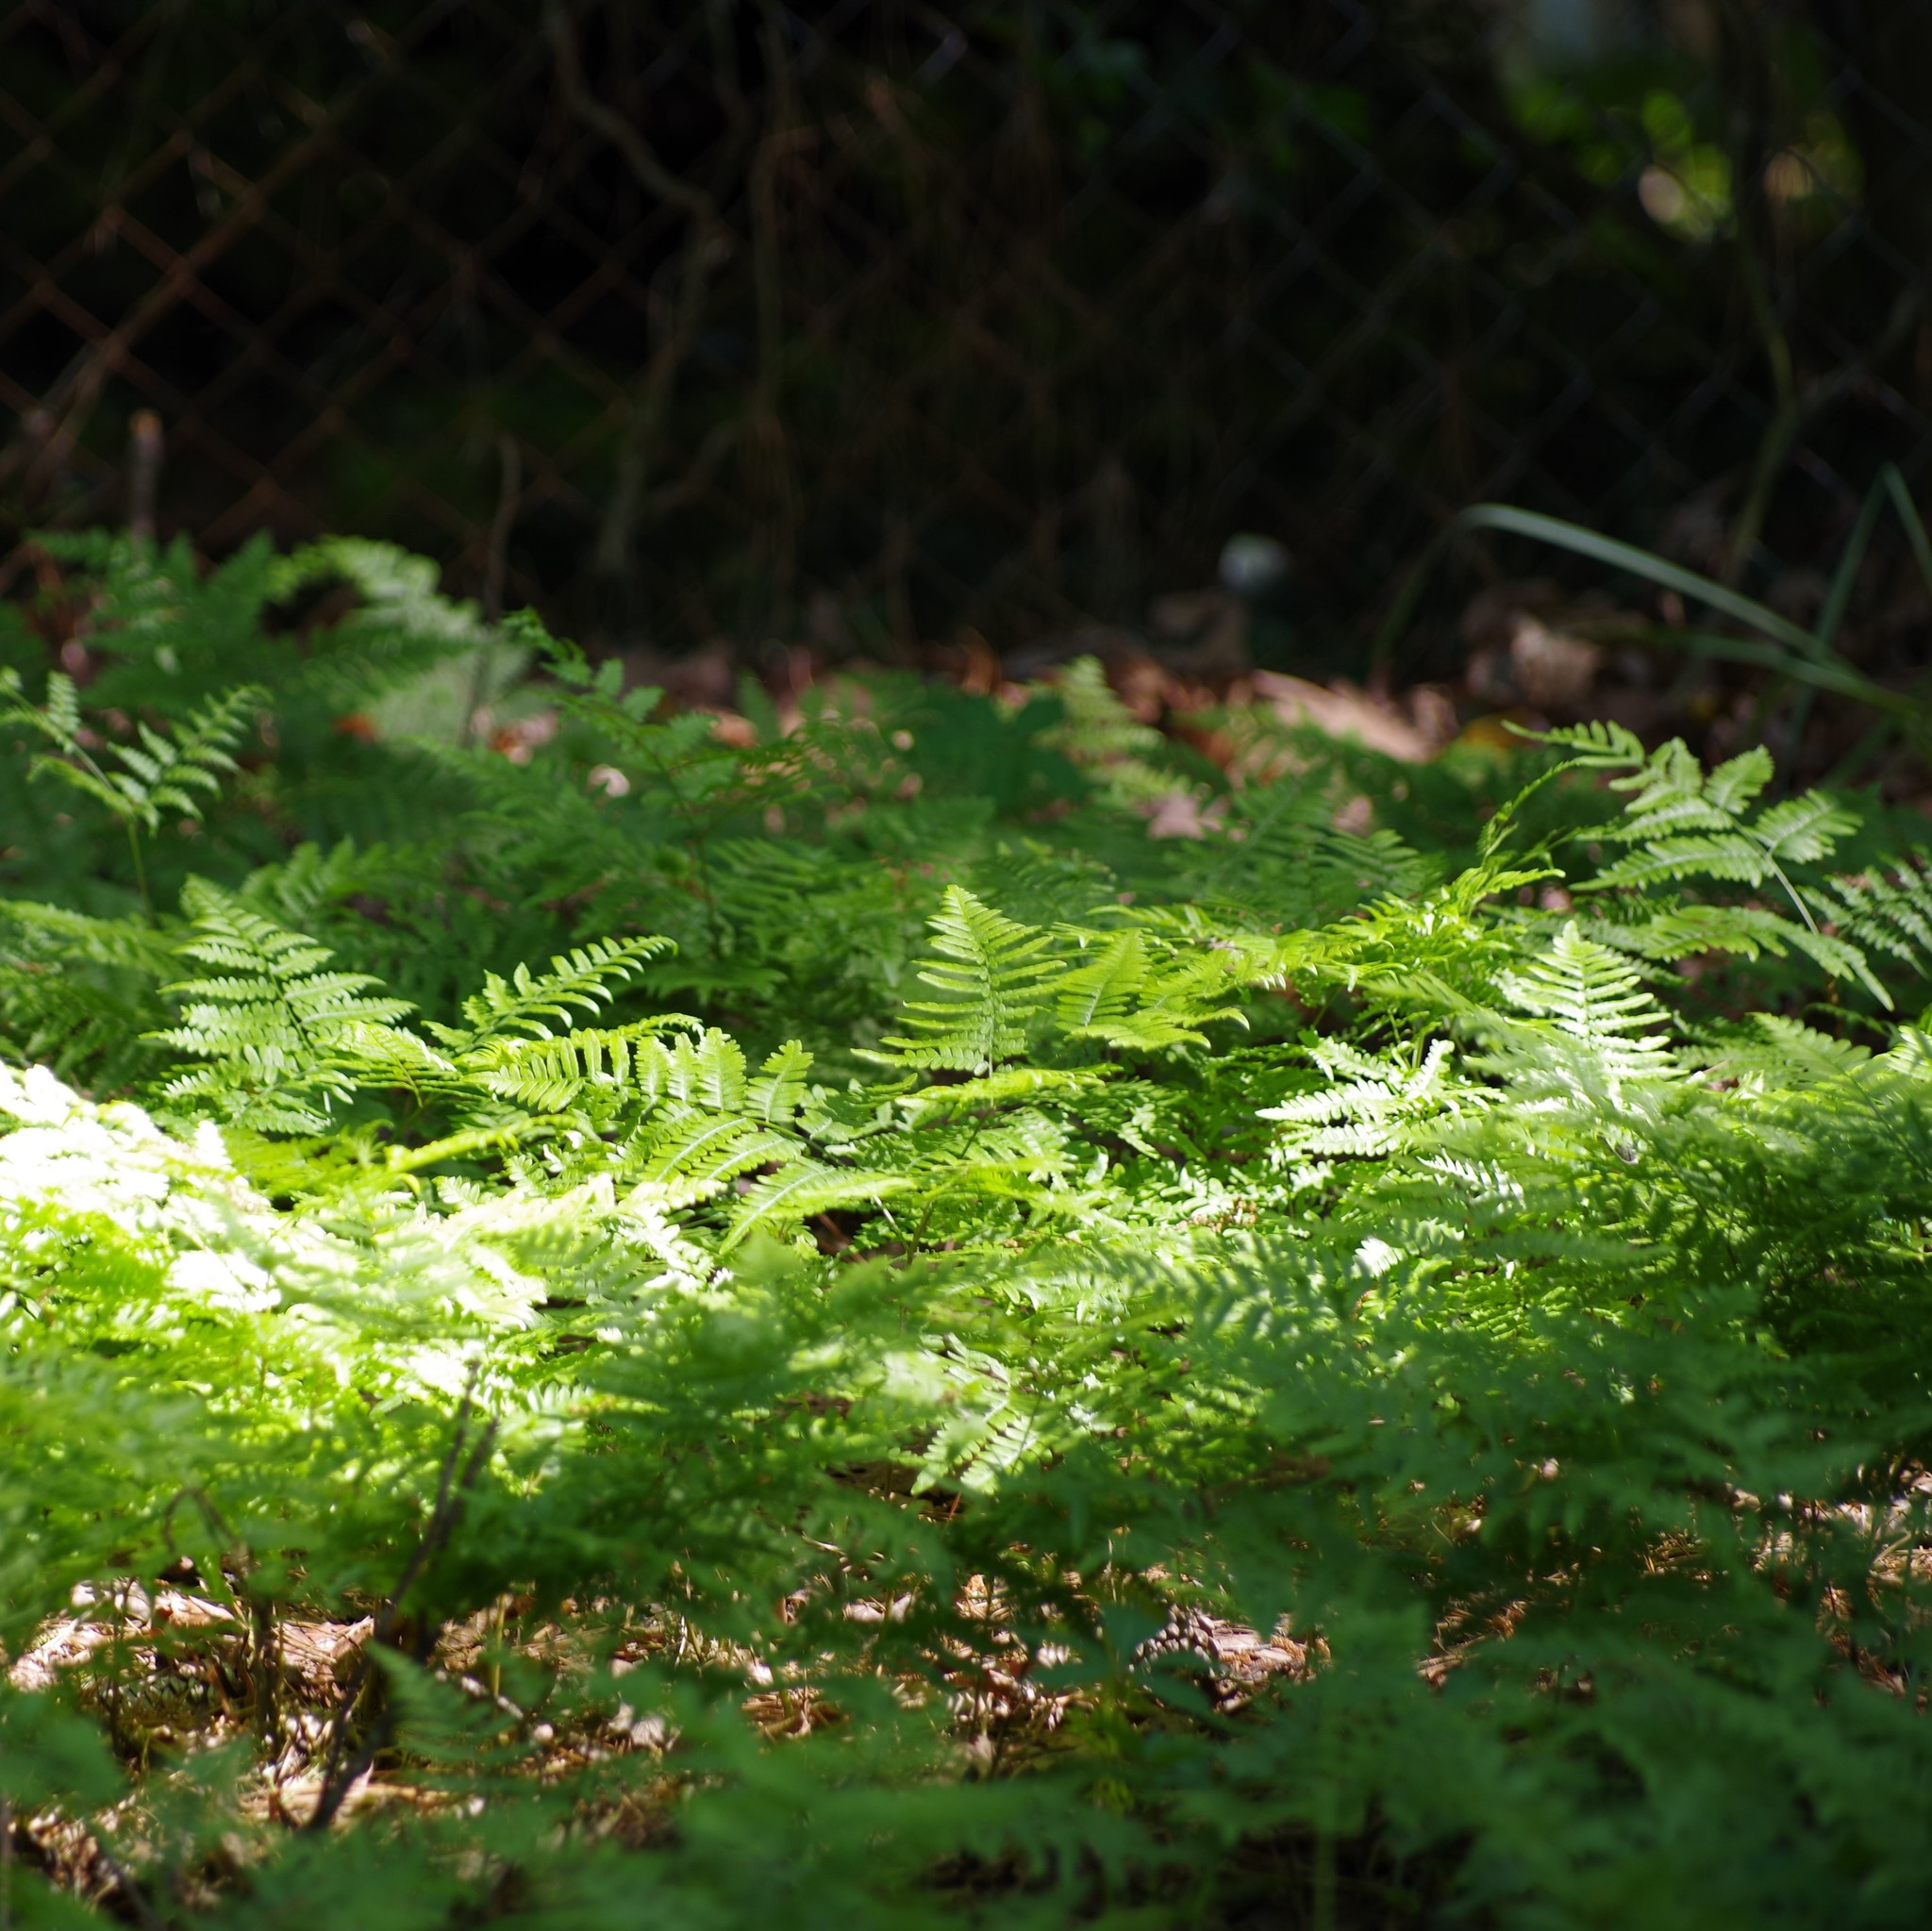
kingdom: Plantae
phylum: Tracheophyta
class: Polypodiopsida
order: Polypodiales
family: Dennstaedtiaceae
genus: Pteridium
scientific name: Pteridium aquilinum
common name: Bracken
